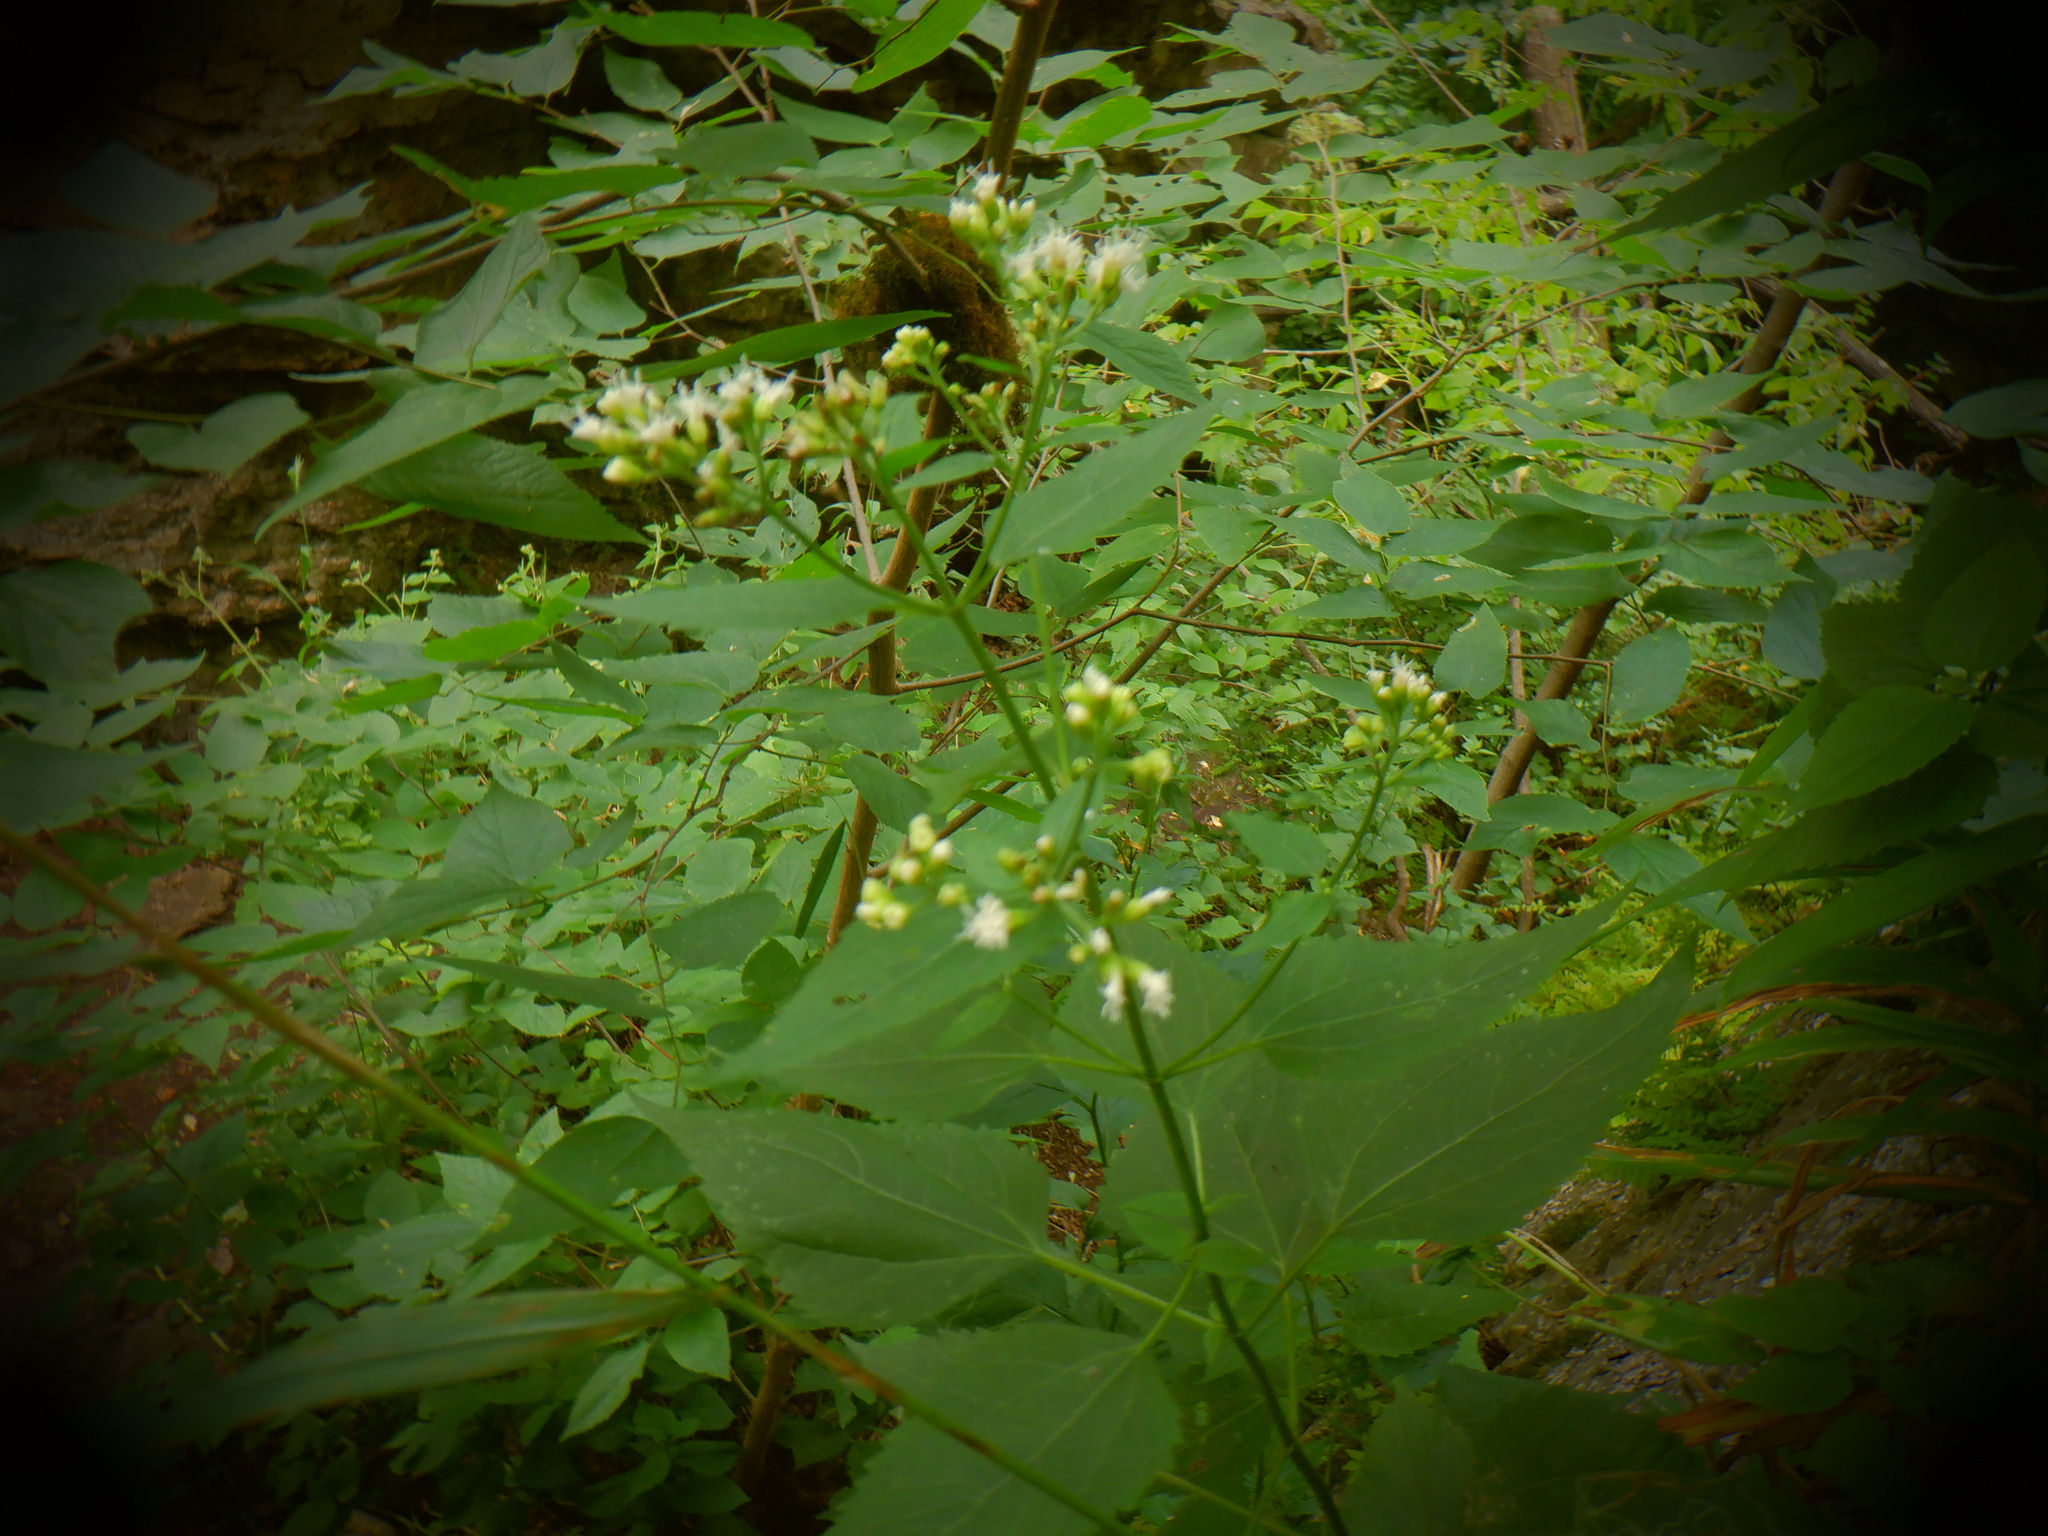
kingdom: Plantae
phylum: Tracheophyta
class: Magnoliopsida
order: Asterales
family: Asteraceae
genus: Ageratina
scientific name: Ageratina altissima
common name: White snakeroot
